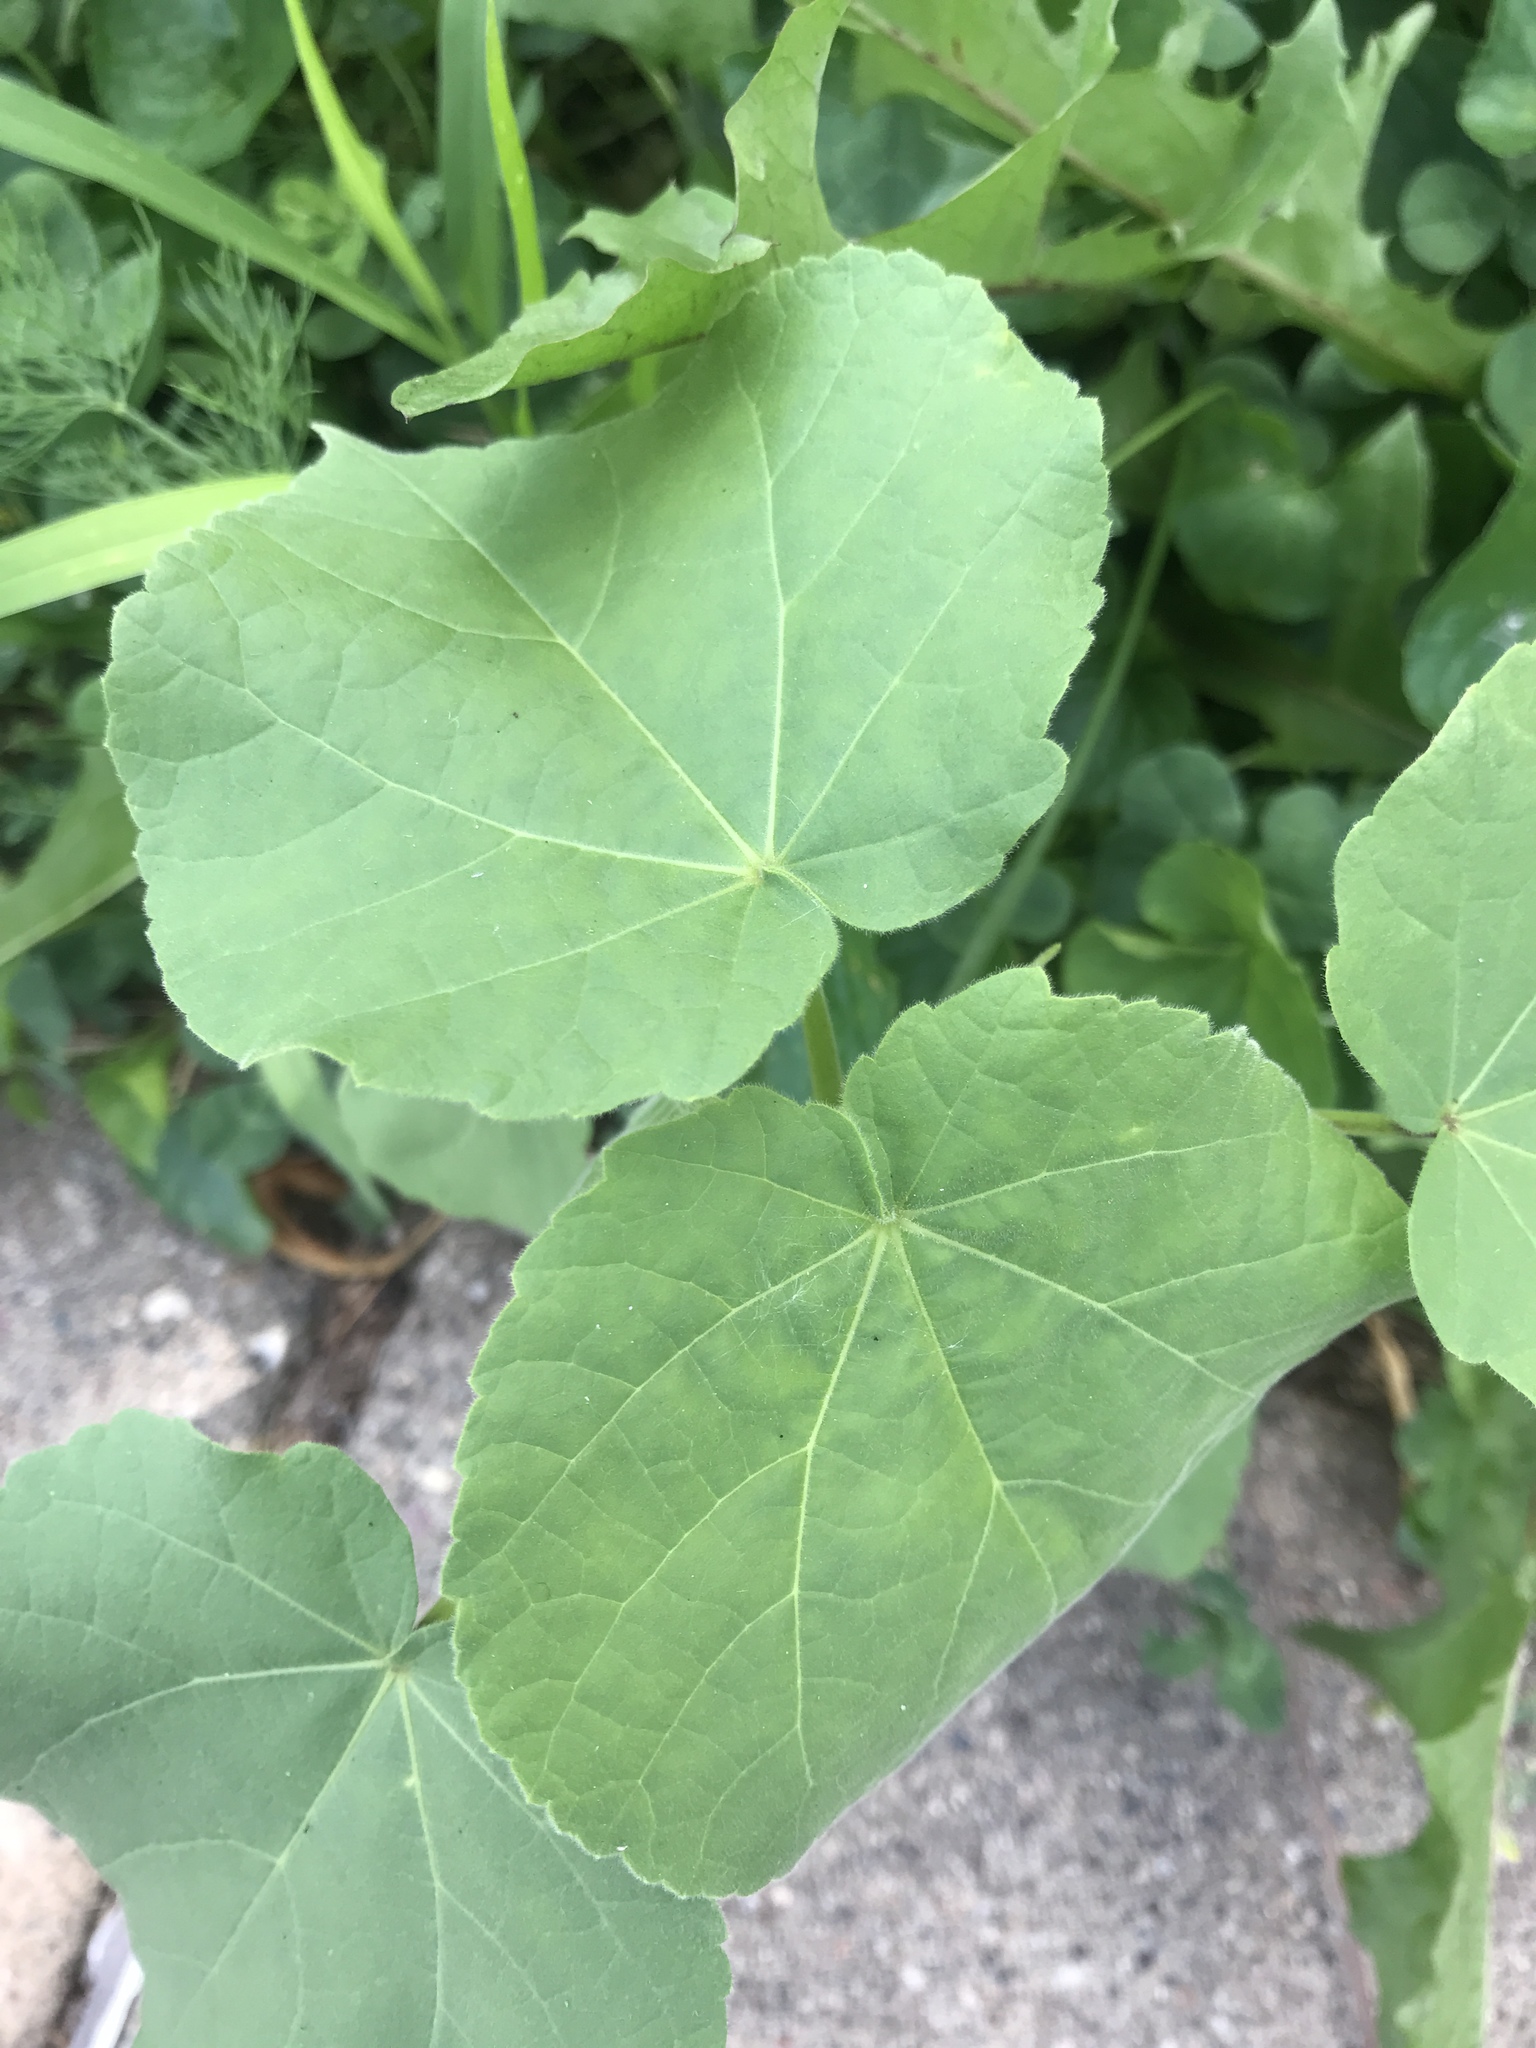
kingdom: Plantae
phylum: Tracheophyta
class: Magnoliopsida
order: Malvales
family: Malvaceae
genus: Abutilon
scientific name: Abutilon theophrasti
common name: Velvetleaf
